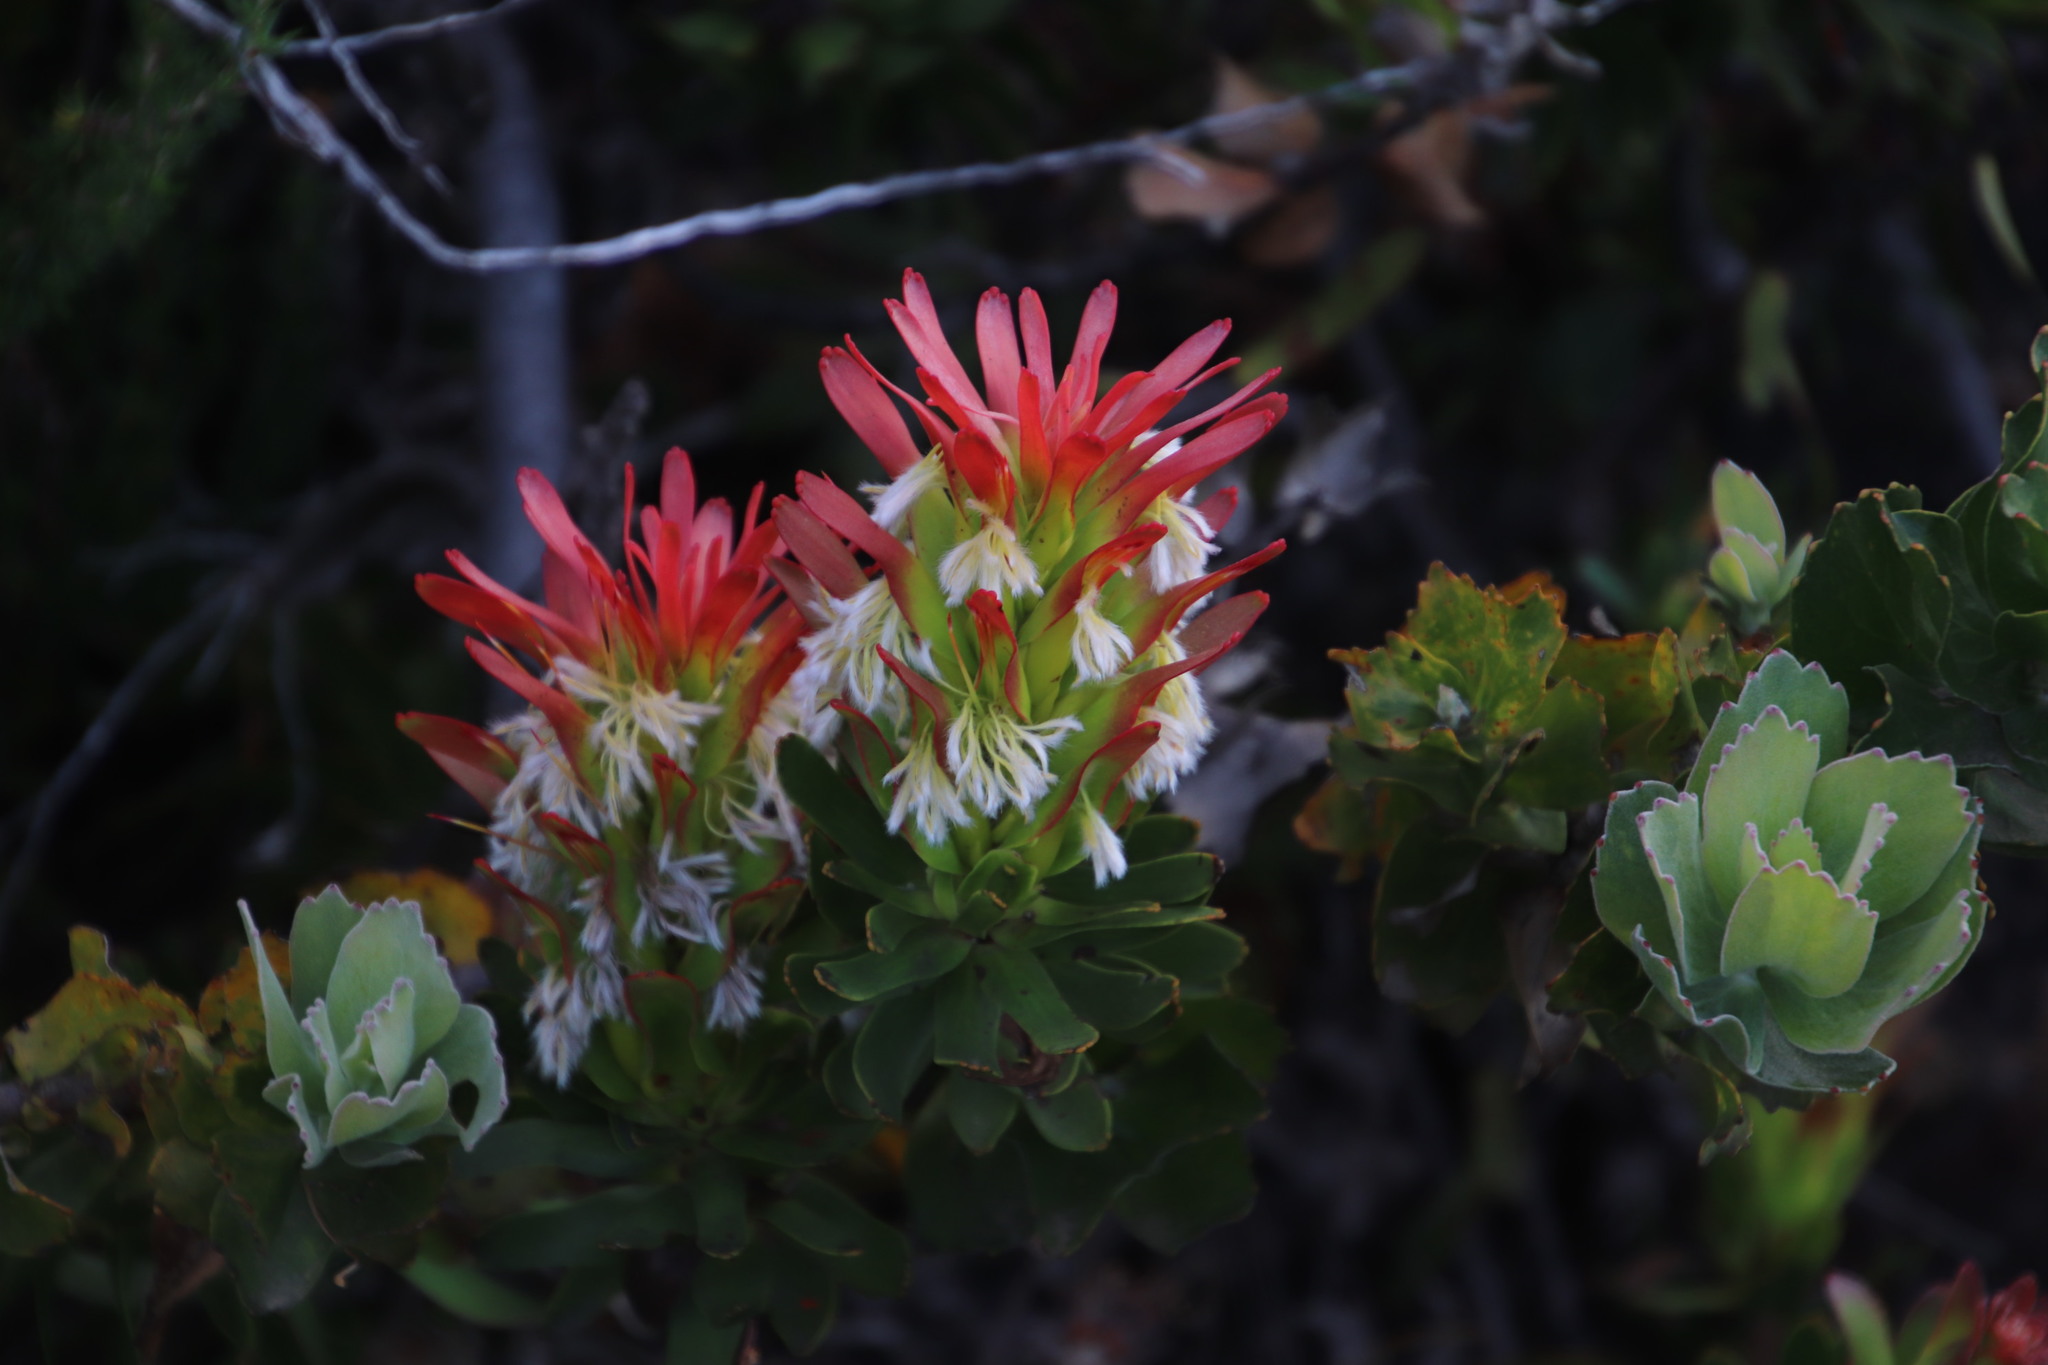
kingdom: Plantae
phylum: Tracheophyta
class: Magnoliopsida
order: Proteales
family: Proteaceae
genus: Mimetes
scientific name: Mimetes cucullatus
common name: Common pagoda
